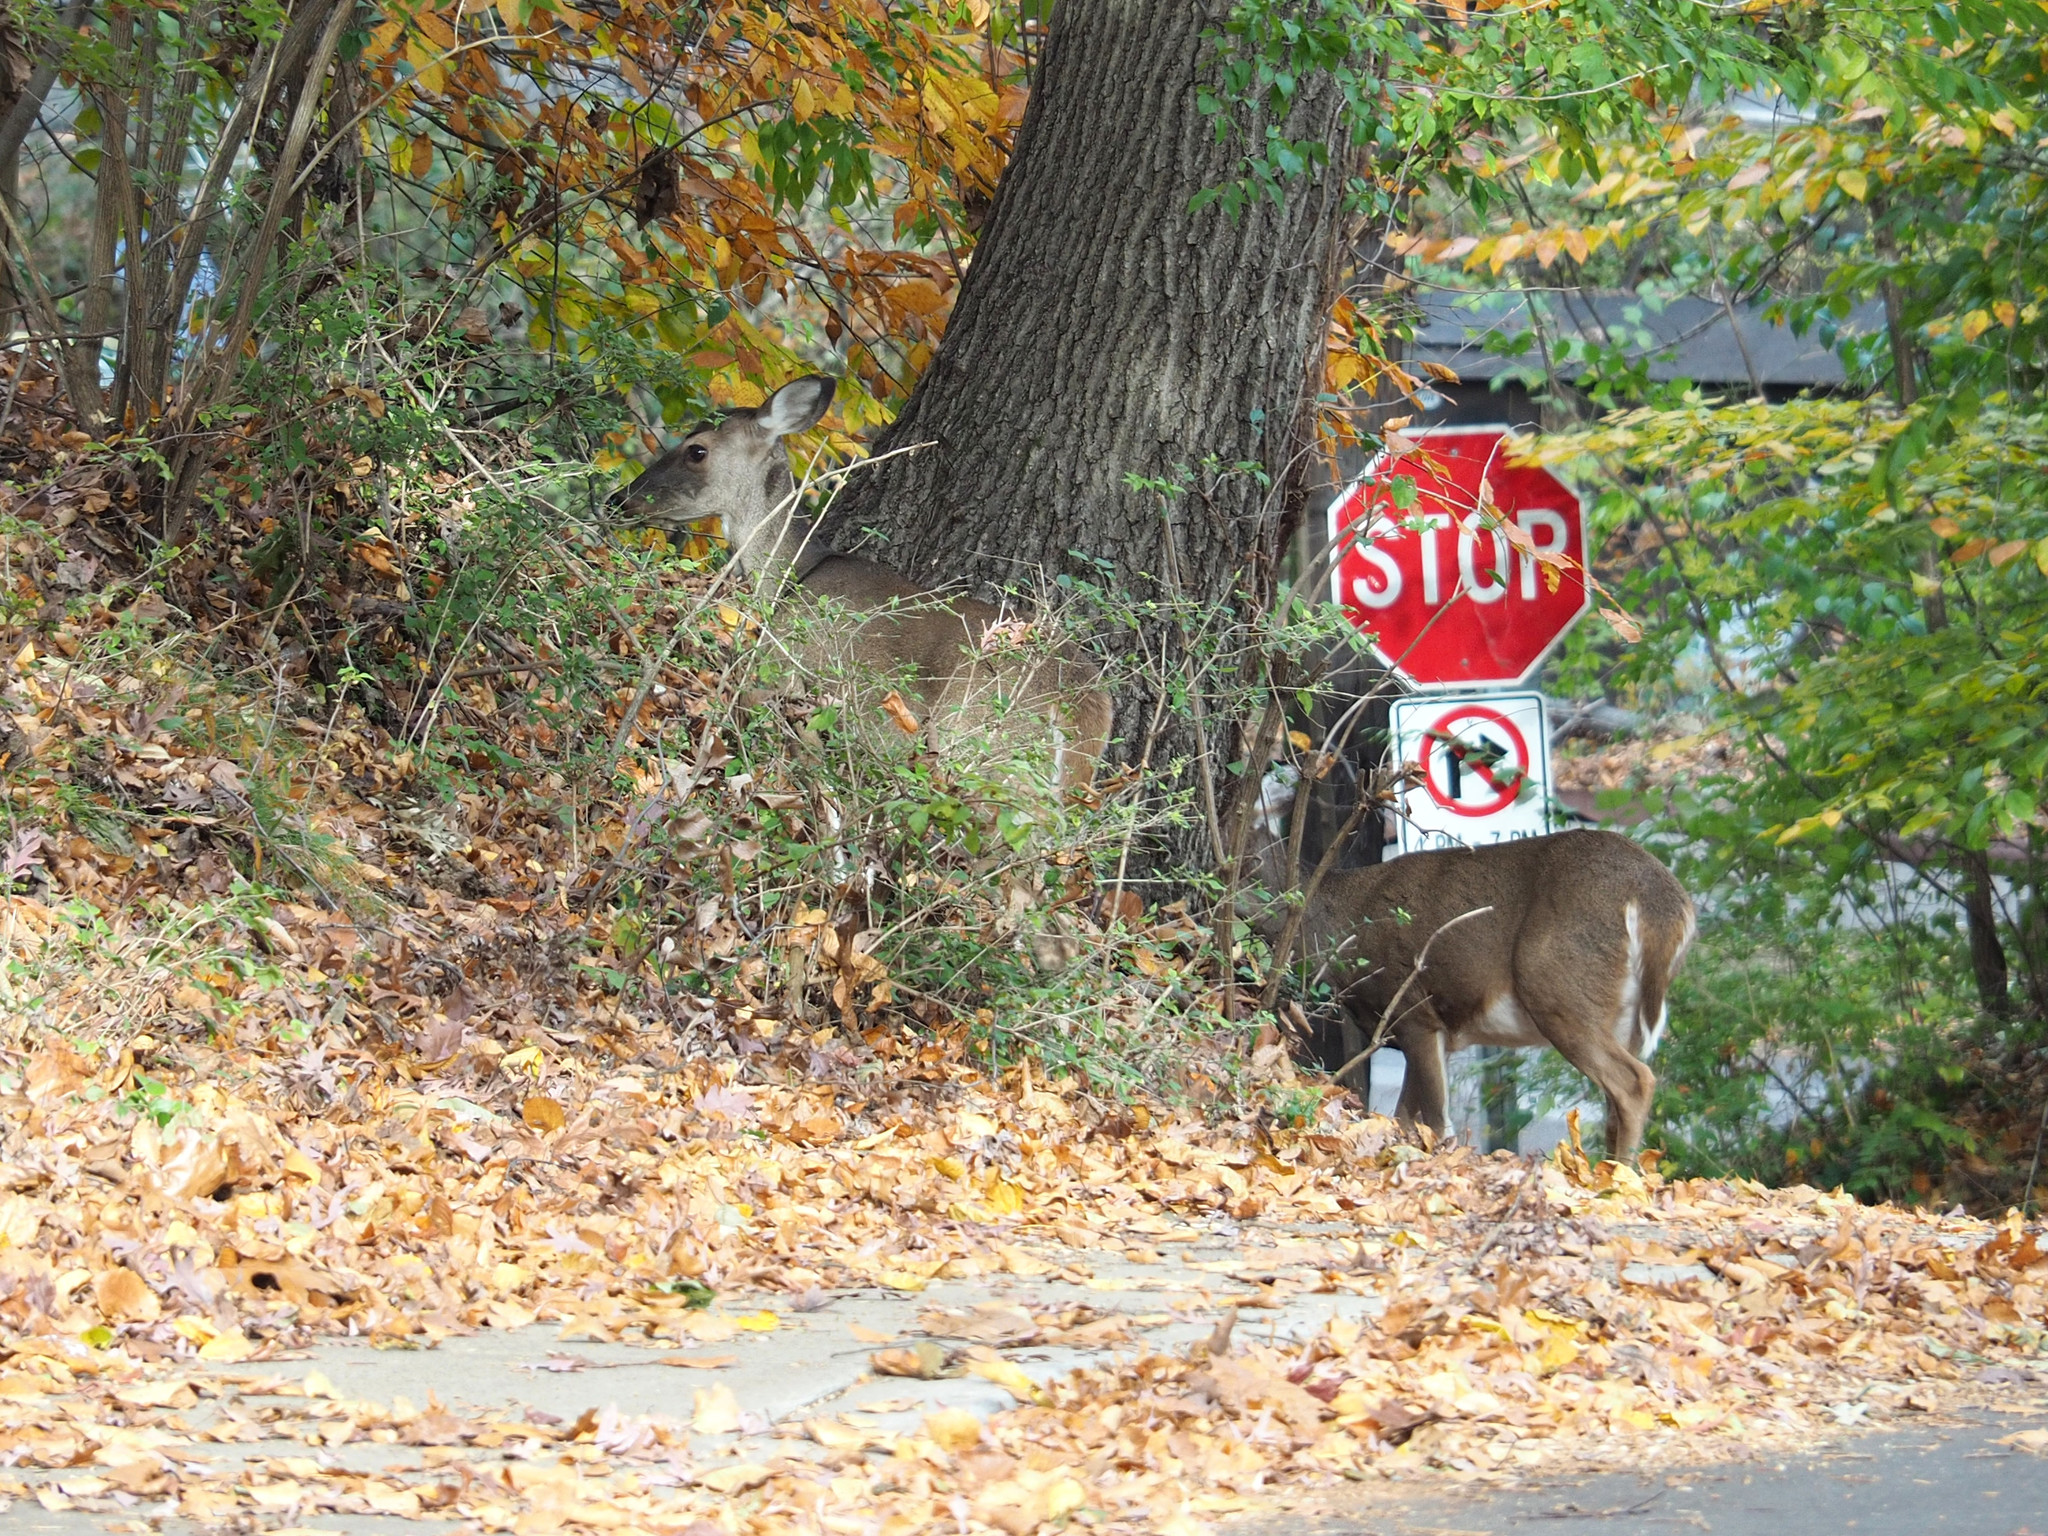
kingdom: Animalia
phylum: Chordata
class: Mammalia
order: Artiodactyla
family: Cervidae
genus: Odocoileus
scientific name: Odocoileus virginianus
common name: White-tailed deer
